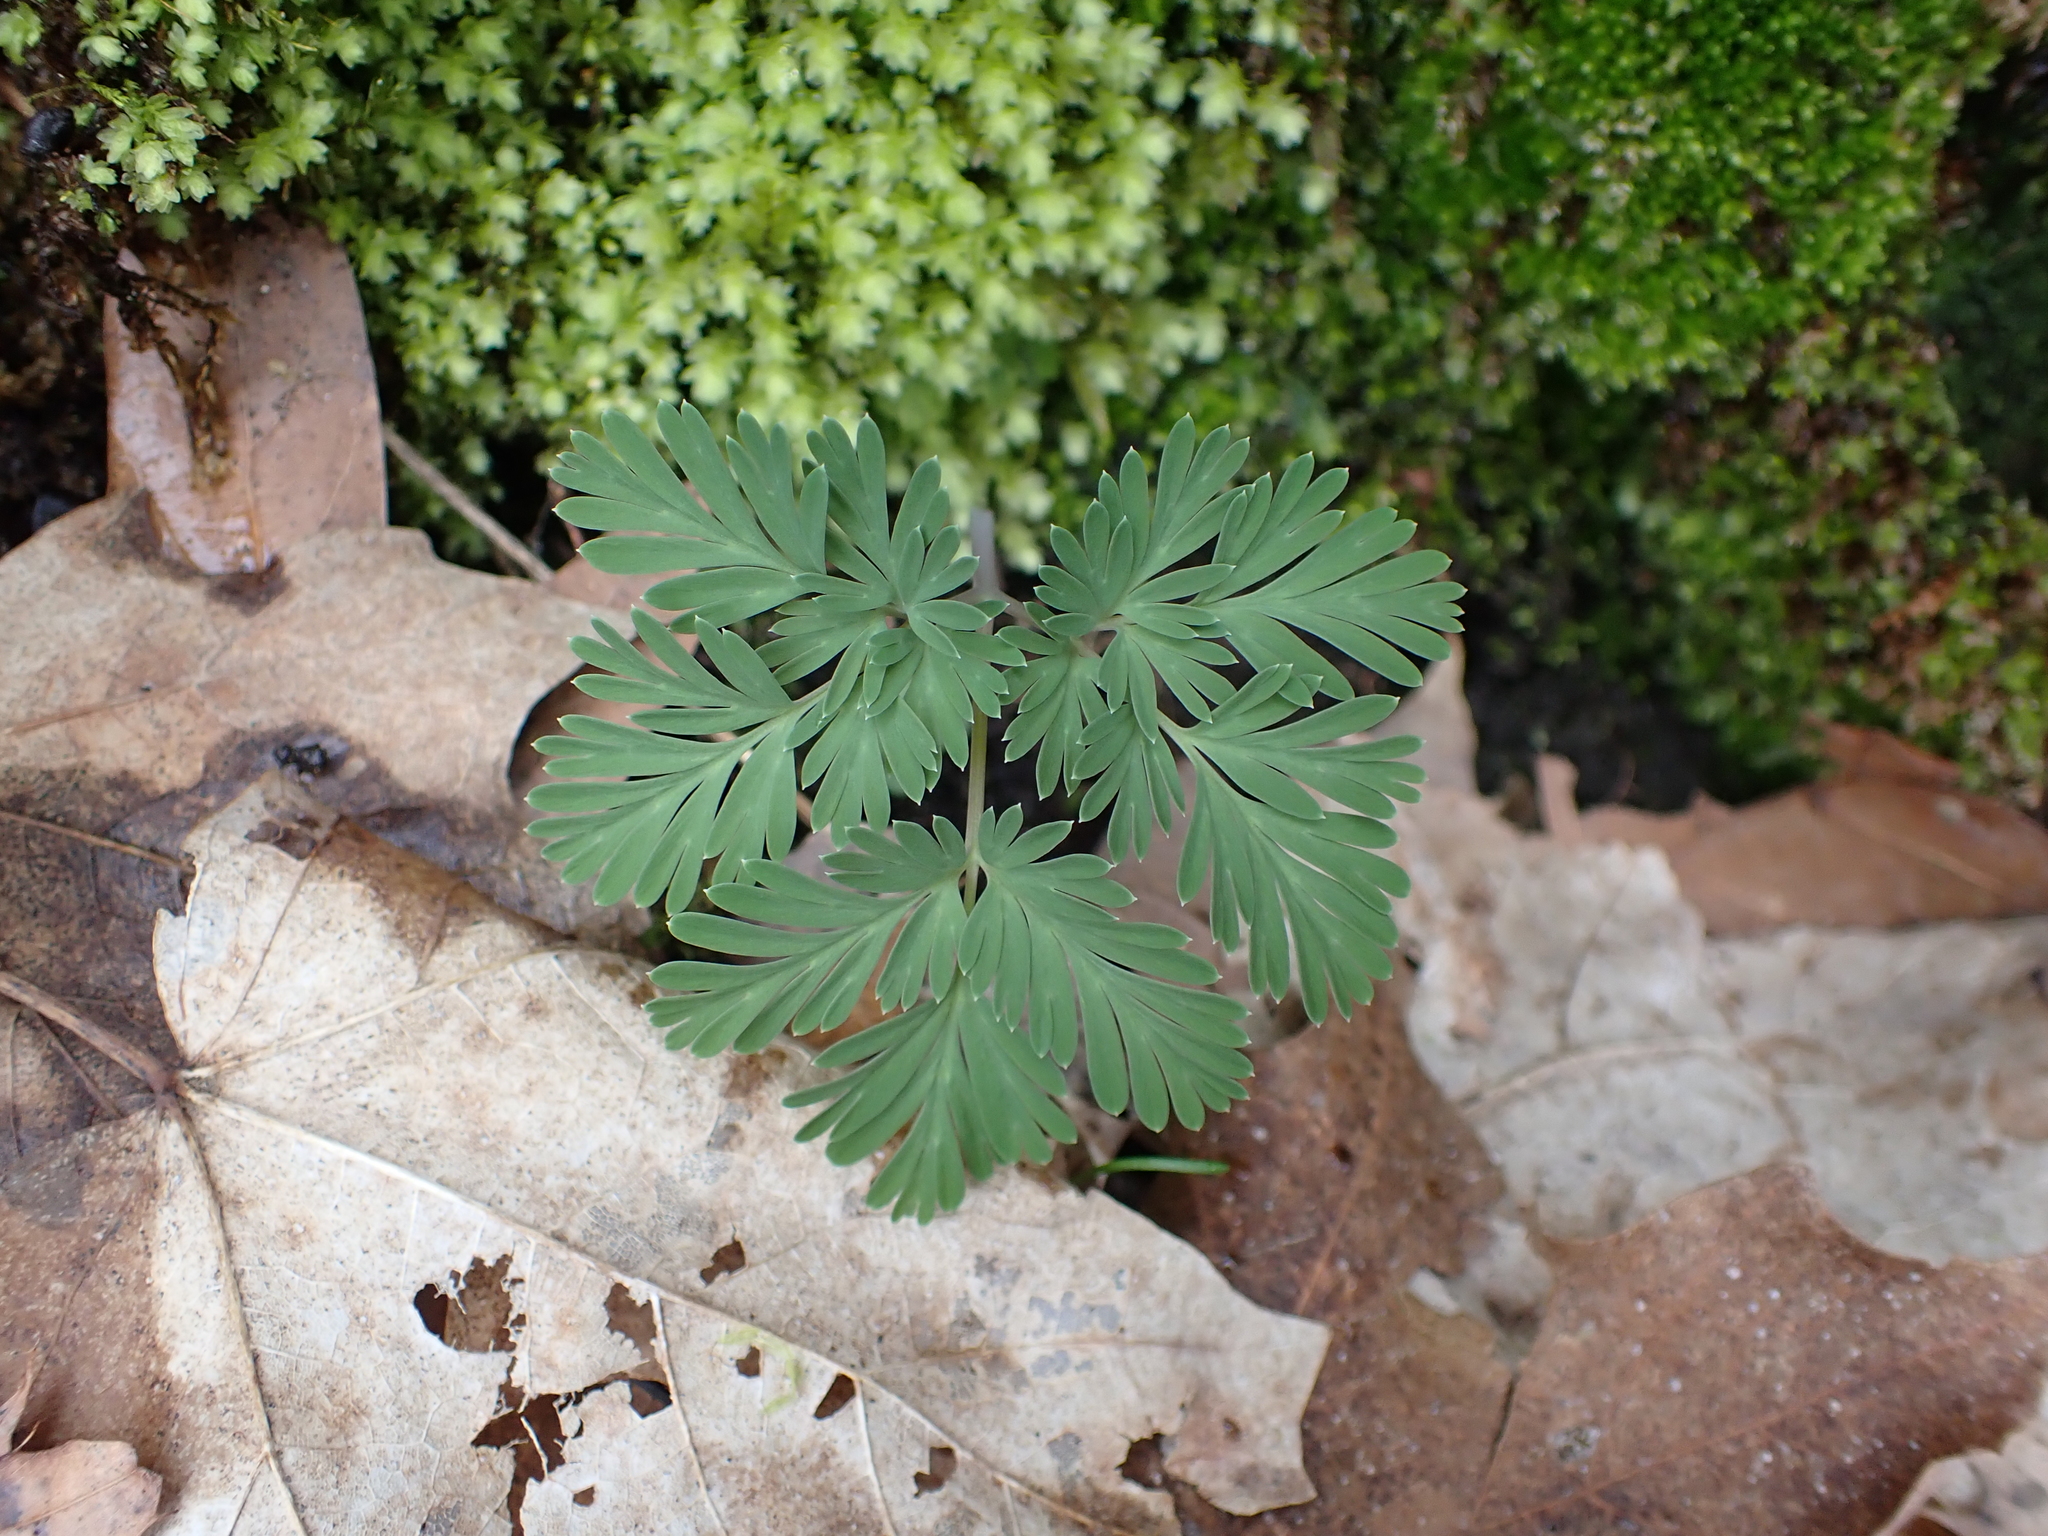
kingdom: Plantae
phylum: Tracheophyta
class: Magnoliopsida
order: Ranunculales
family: Papaveraceae
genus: Dicentra
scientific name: Dicentra cucullaria
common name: Dutchman's breeches
